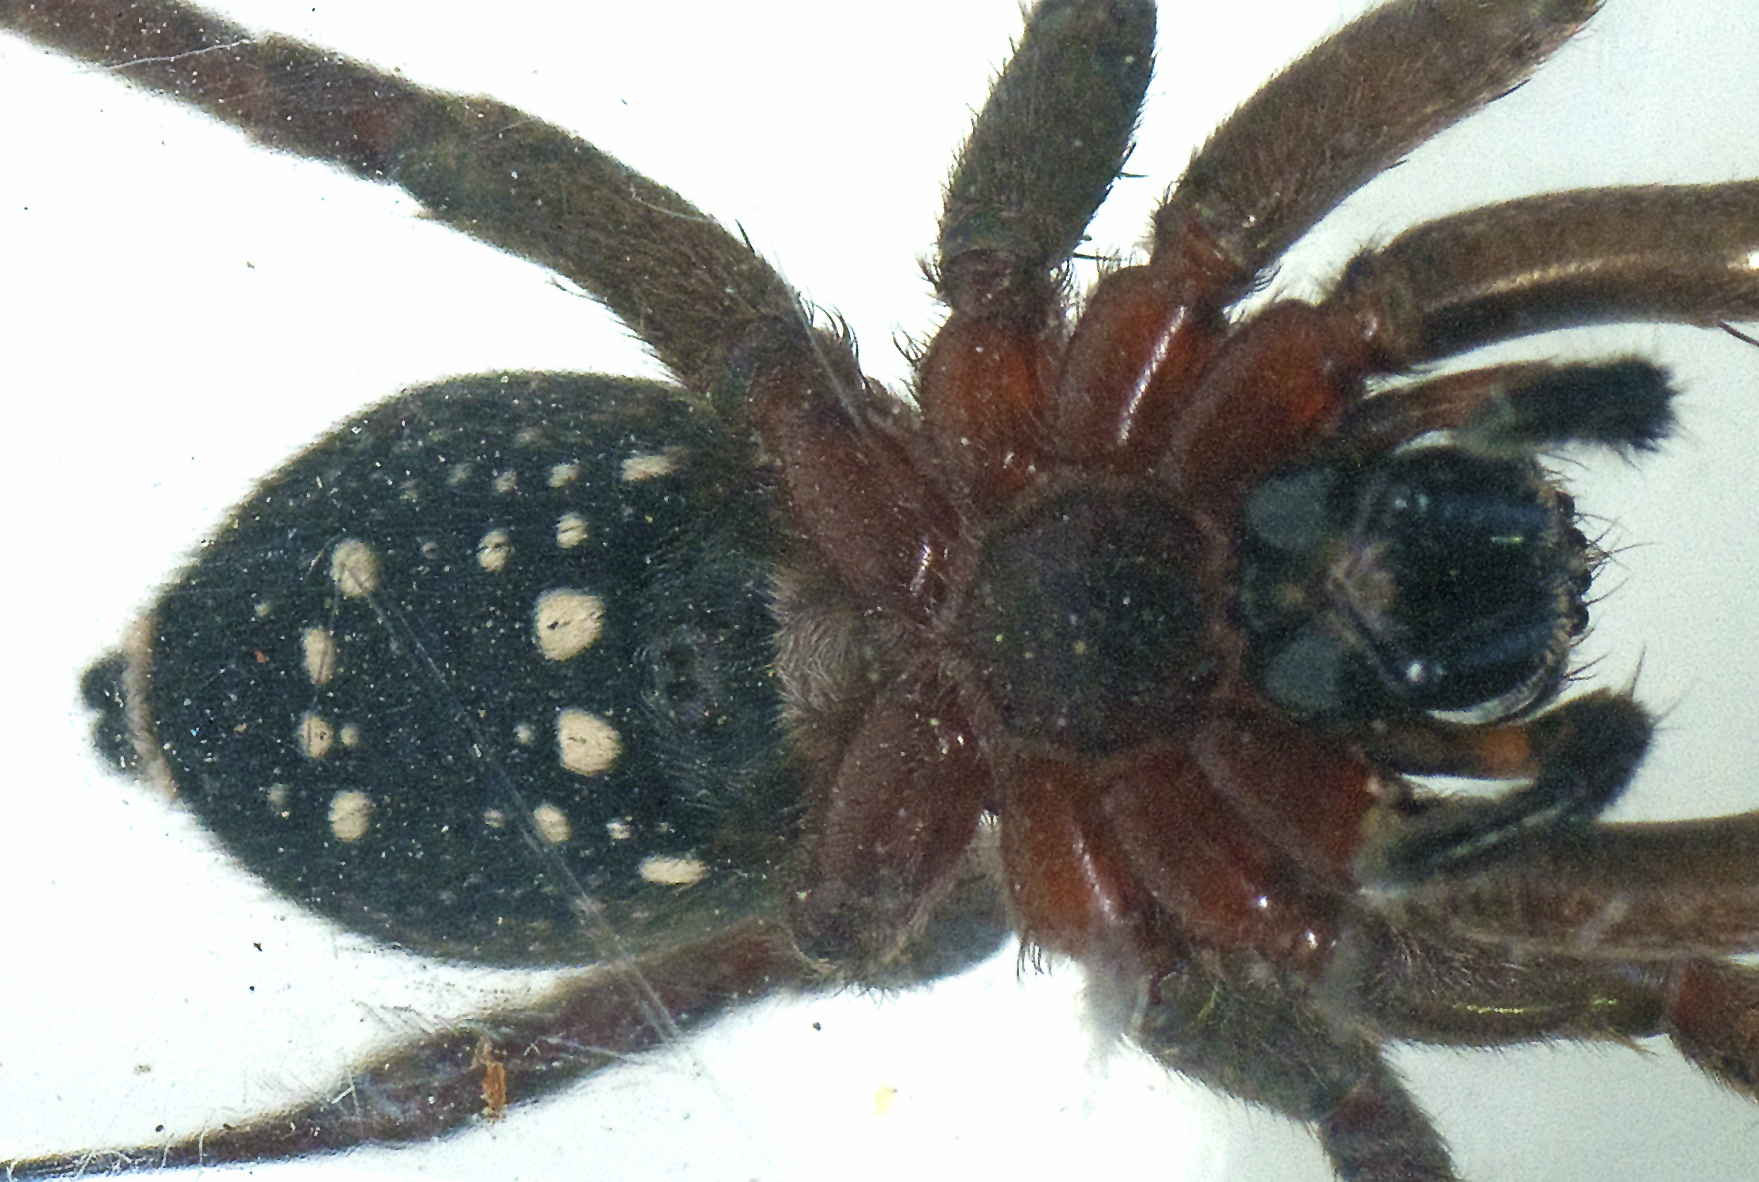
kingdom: Animalia
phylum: Arthropoda
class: Arachnida
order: Araneae
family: Miturgidae
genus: Mituliodon
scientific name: Mituliodon tarantulinus
